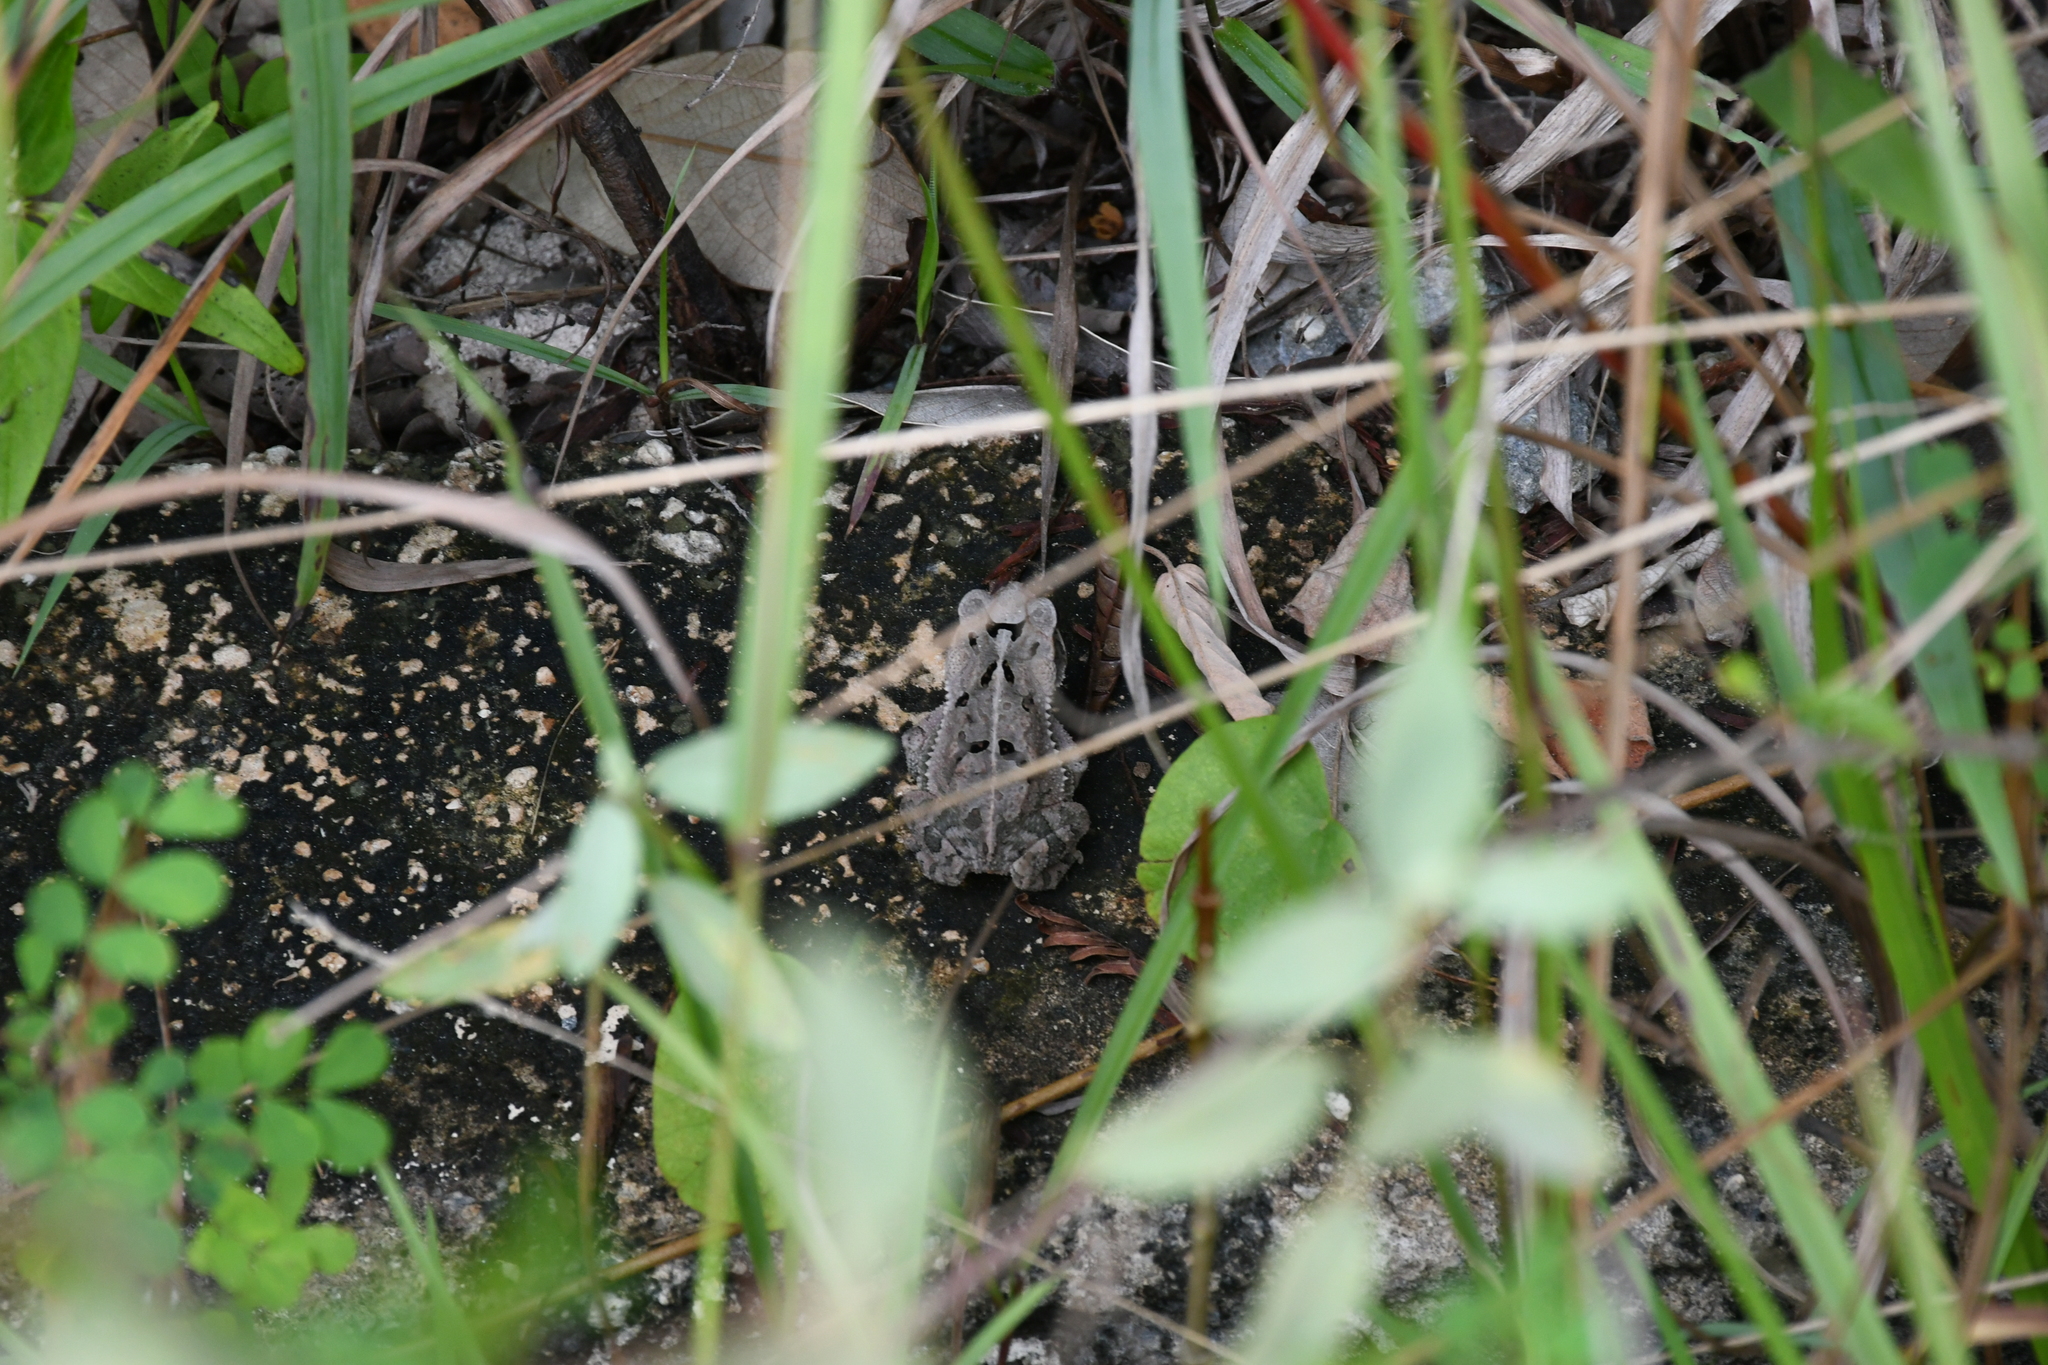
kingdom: Animalia
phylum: Chordata
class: Amphibia
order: Anura
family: Bufonidae
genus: Incilius
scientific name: Incilius valliceps
